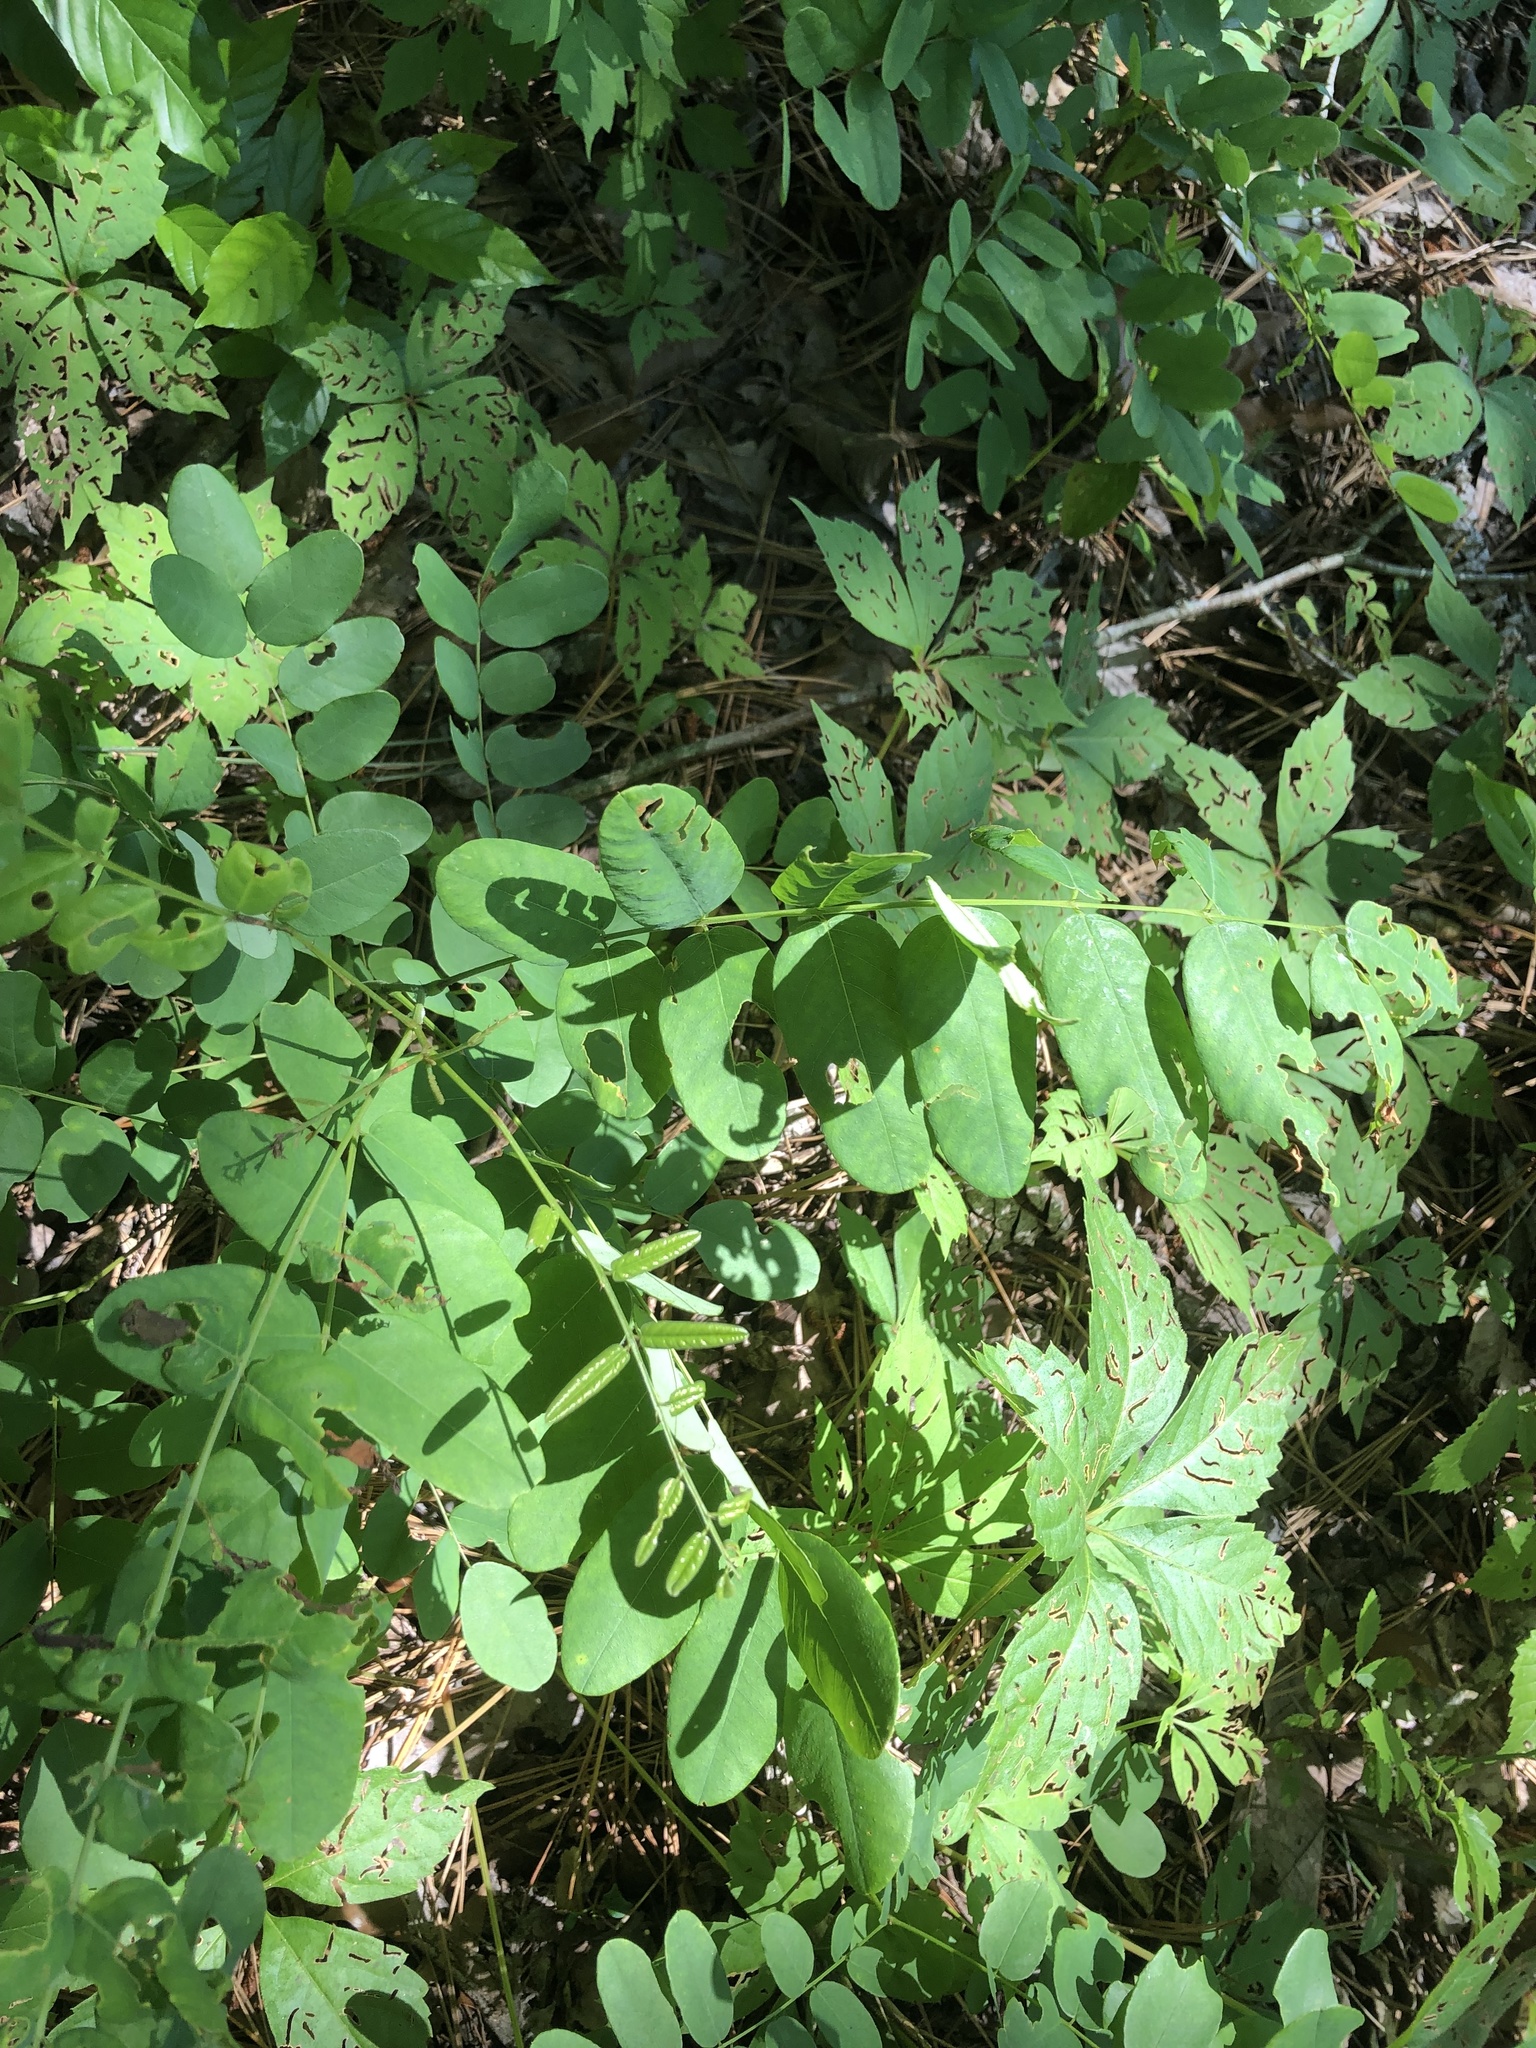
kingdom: Plantae
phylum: Tracheophyta
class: Magnoliopsida
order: Fabales
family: Fabaceae
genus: Amorpha
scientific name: Amorpha fruticosa
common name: False indigo
